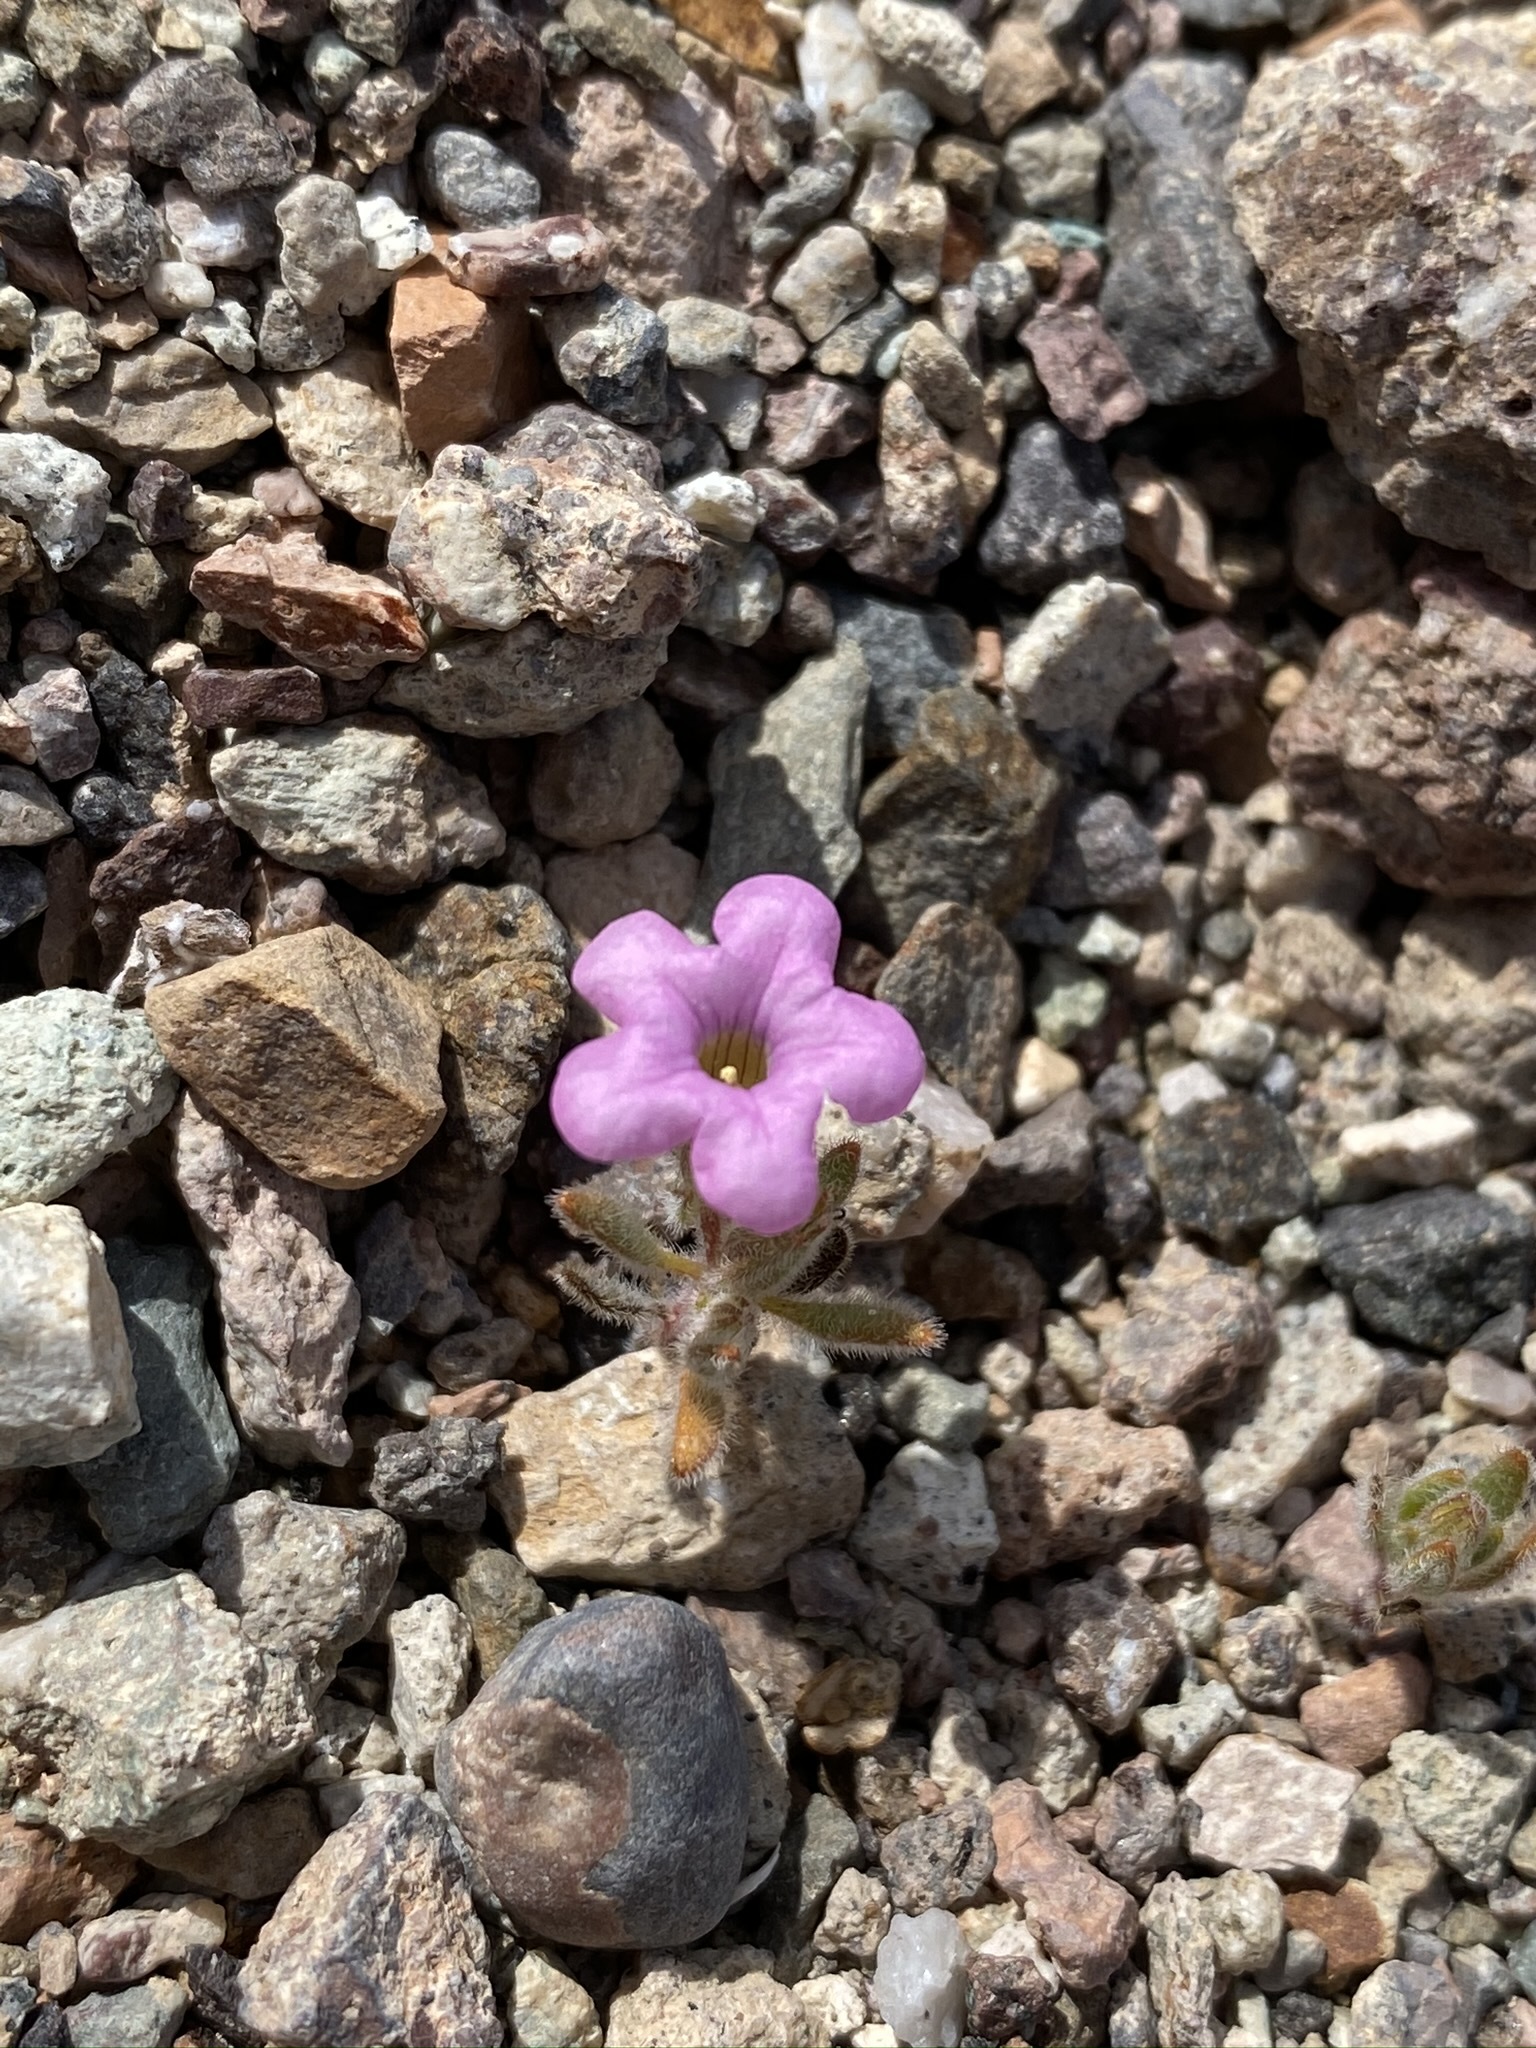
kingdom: Plantae
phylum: Tracheophyta
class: Magnoliopsida
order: Boraginales
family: Namaceae
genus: Nama
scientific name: Nama demissa
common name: Leafy nama
